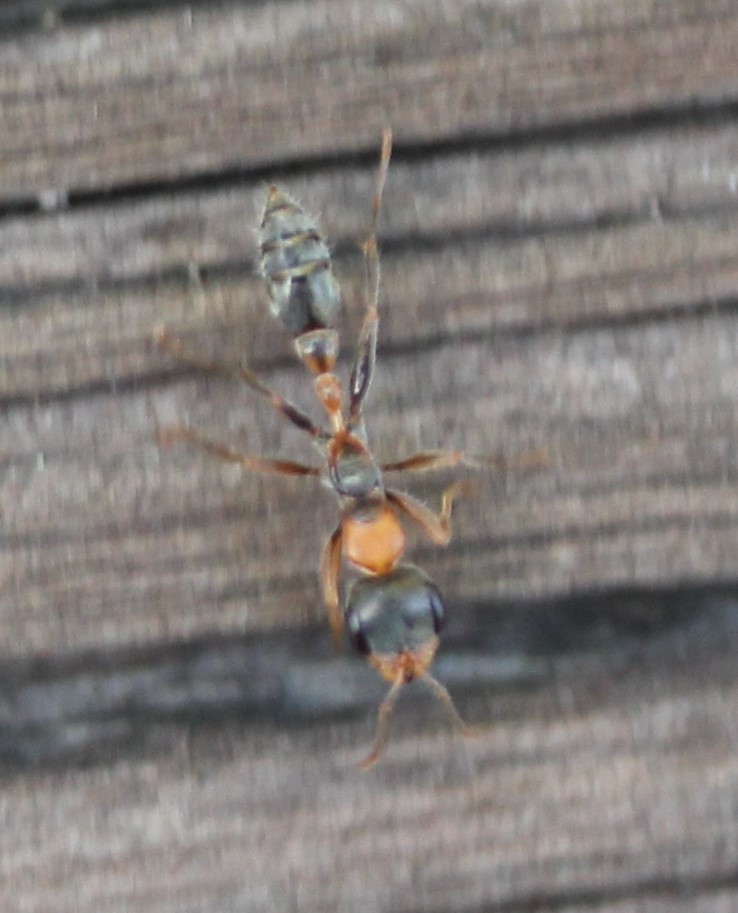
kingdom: Animalia
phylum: Arthropoda
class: Insecta
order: Hymenoptera
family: Formicidae
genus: Pseudomyrmex
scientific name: Pseudomyrmex gracilis
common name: Graceful twig ant
